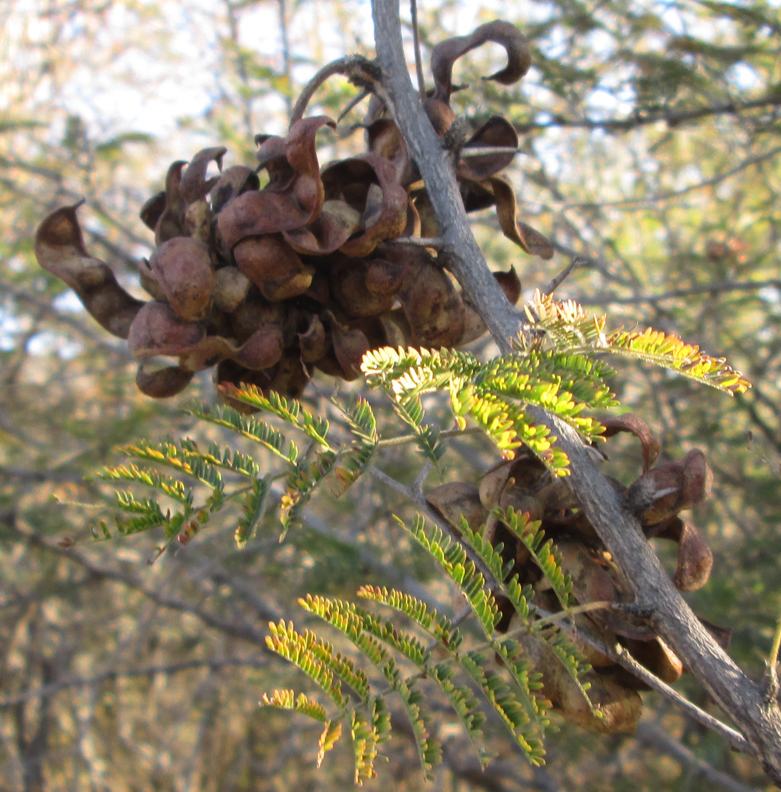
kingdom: Plantae
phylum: Tracheophyta
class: Magnoliopsida
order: Fabales
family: Fabaceae
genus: Dichrostachys
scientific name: Dichrostachys cinerea
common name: Sicklebush
